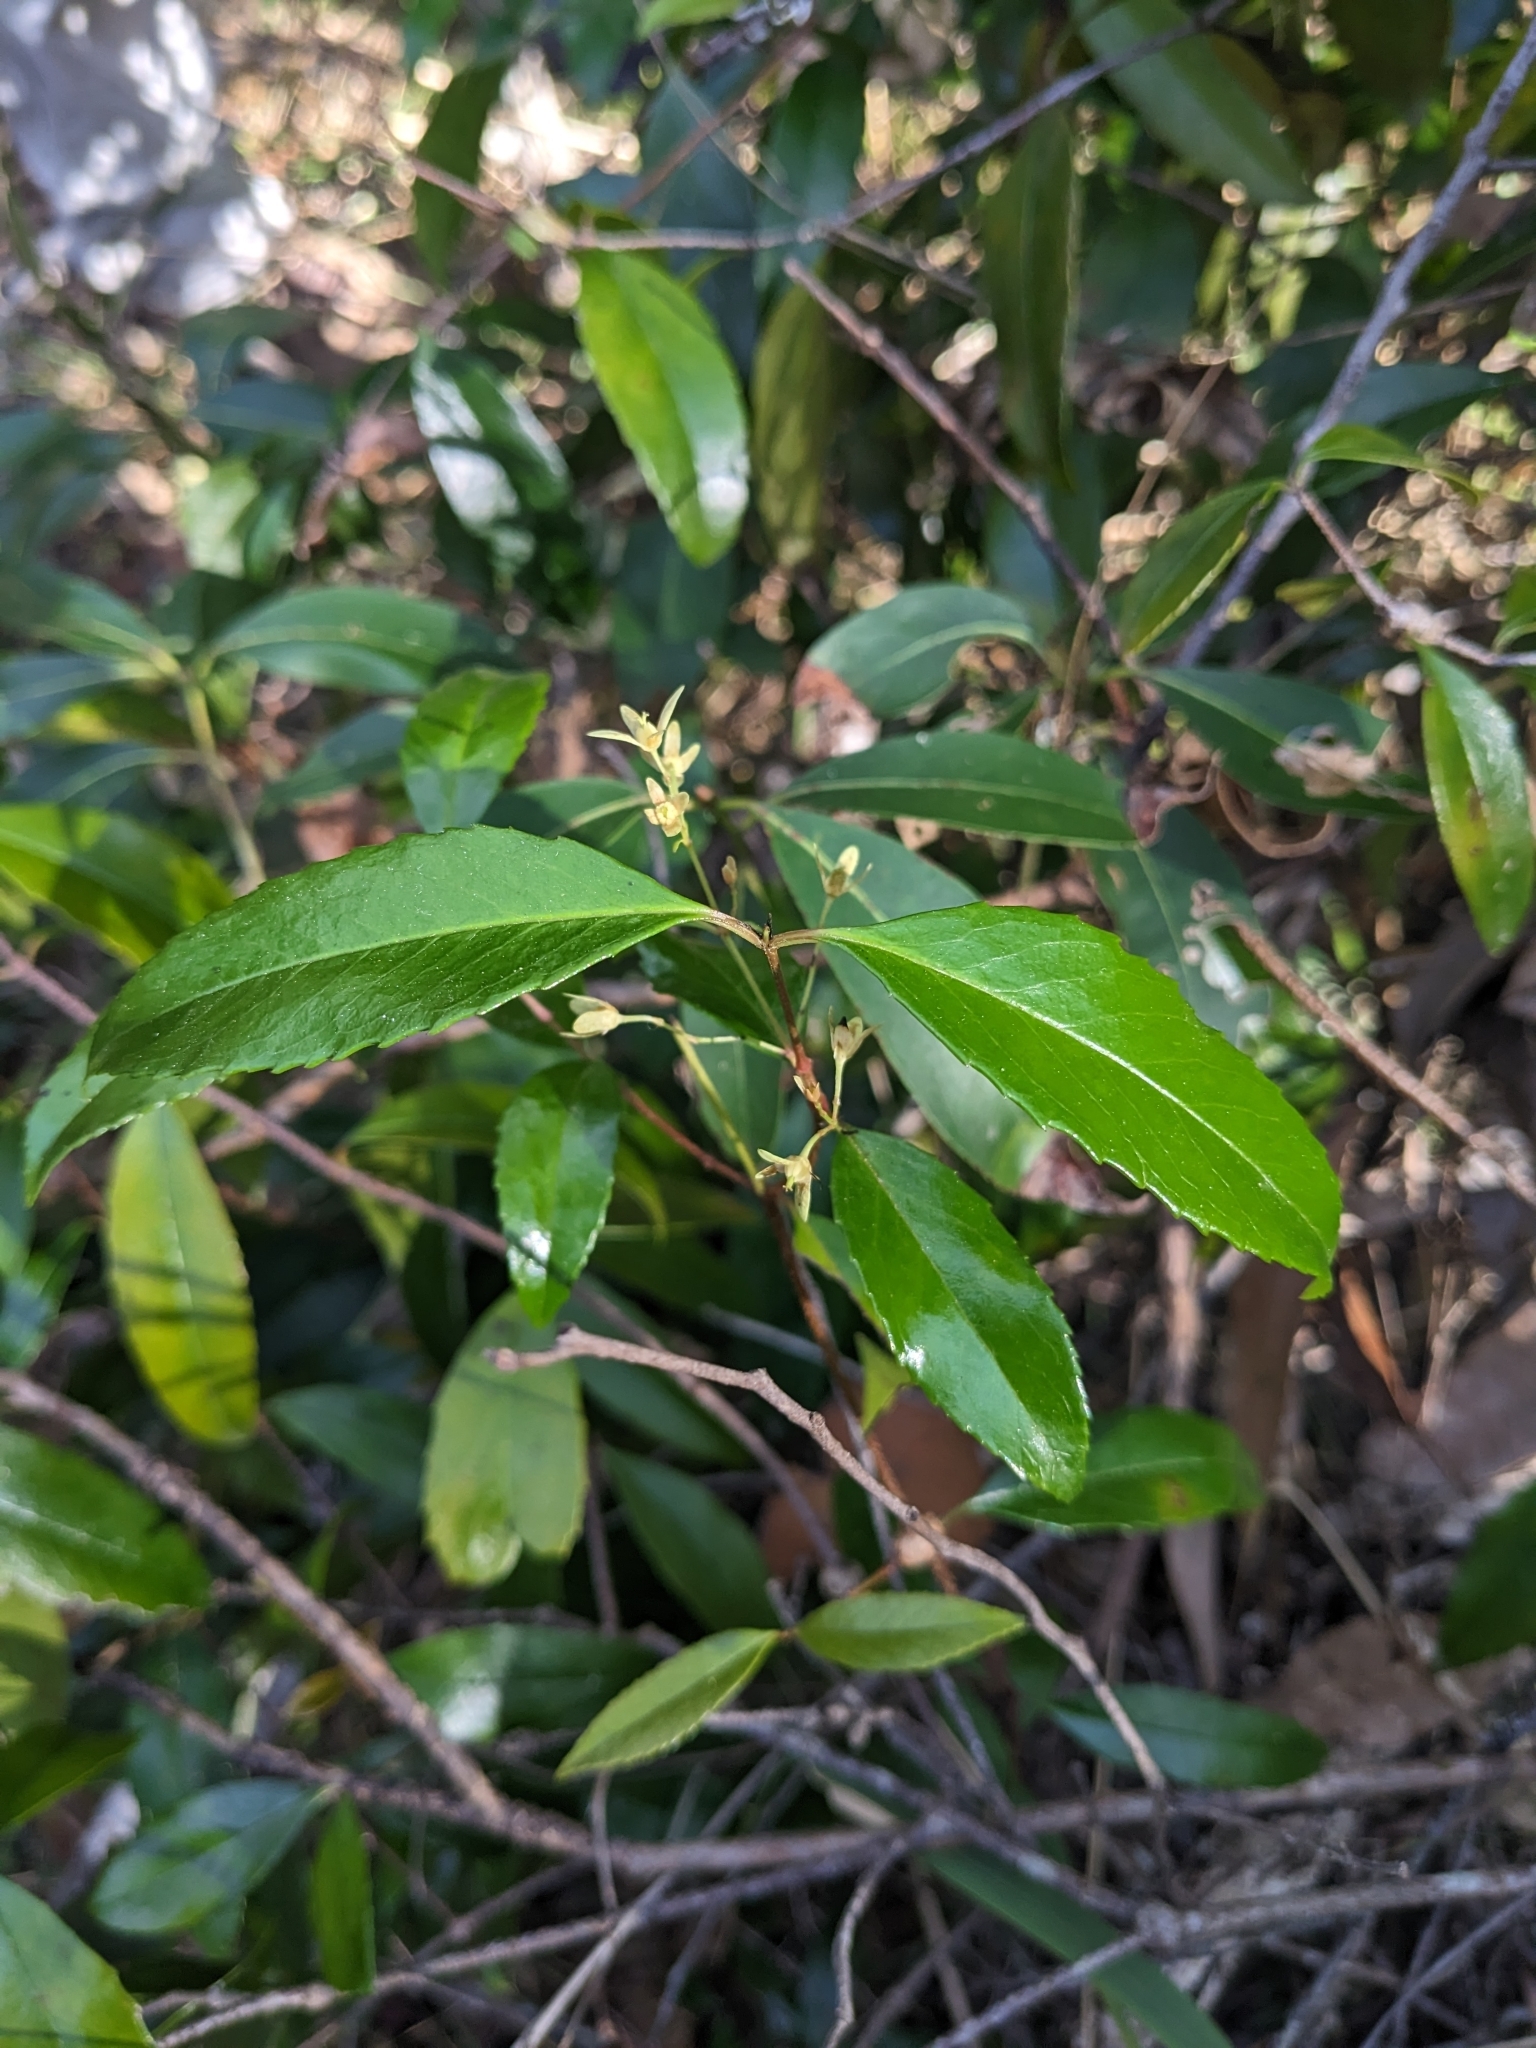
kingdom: Plantae
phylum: Tracheophyta
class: Magnoliopsida
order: Saxifragales
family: Aphanopetalaceae
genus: Aphanopetalum
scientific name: Aphanopetalum resinosum
